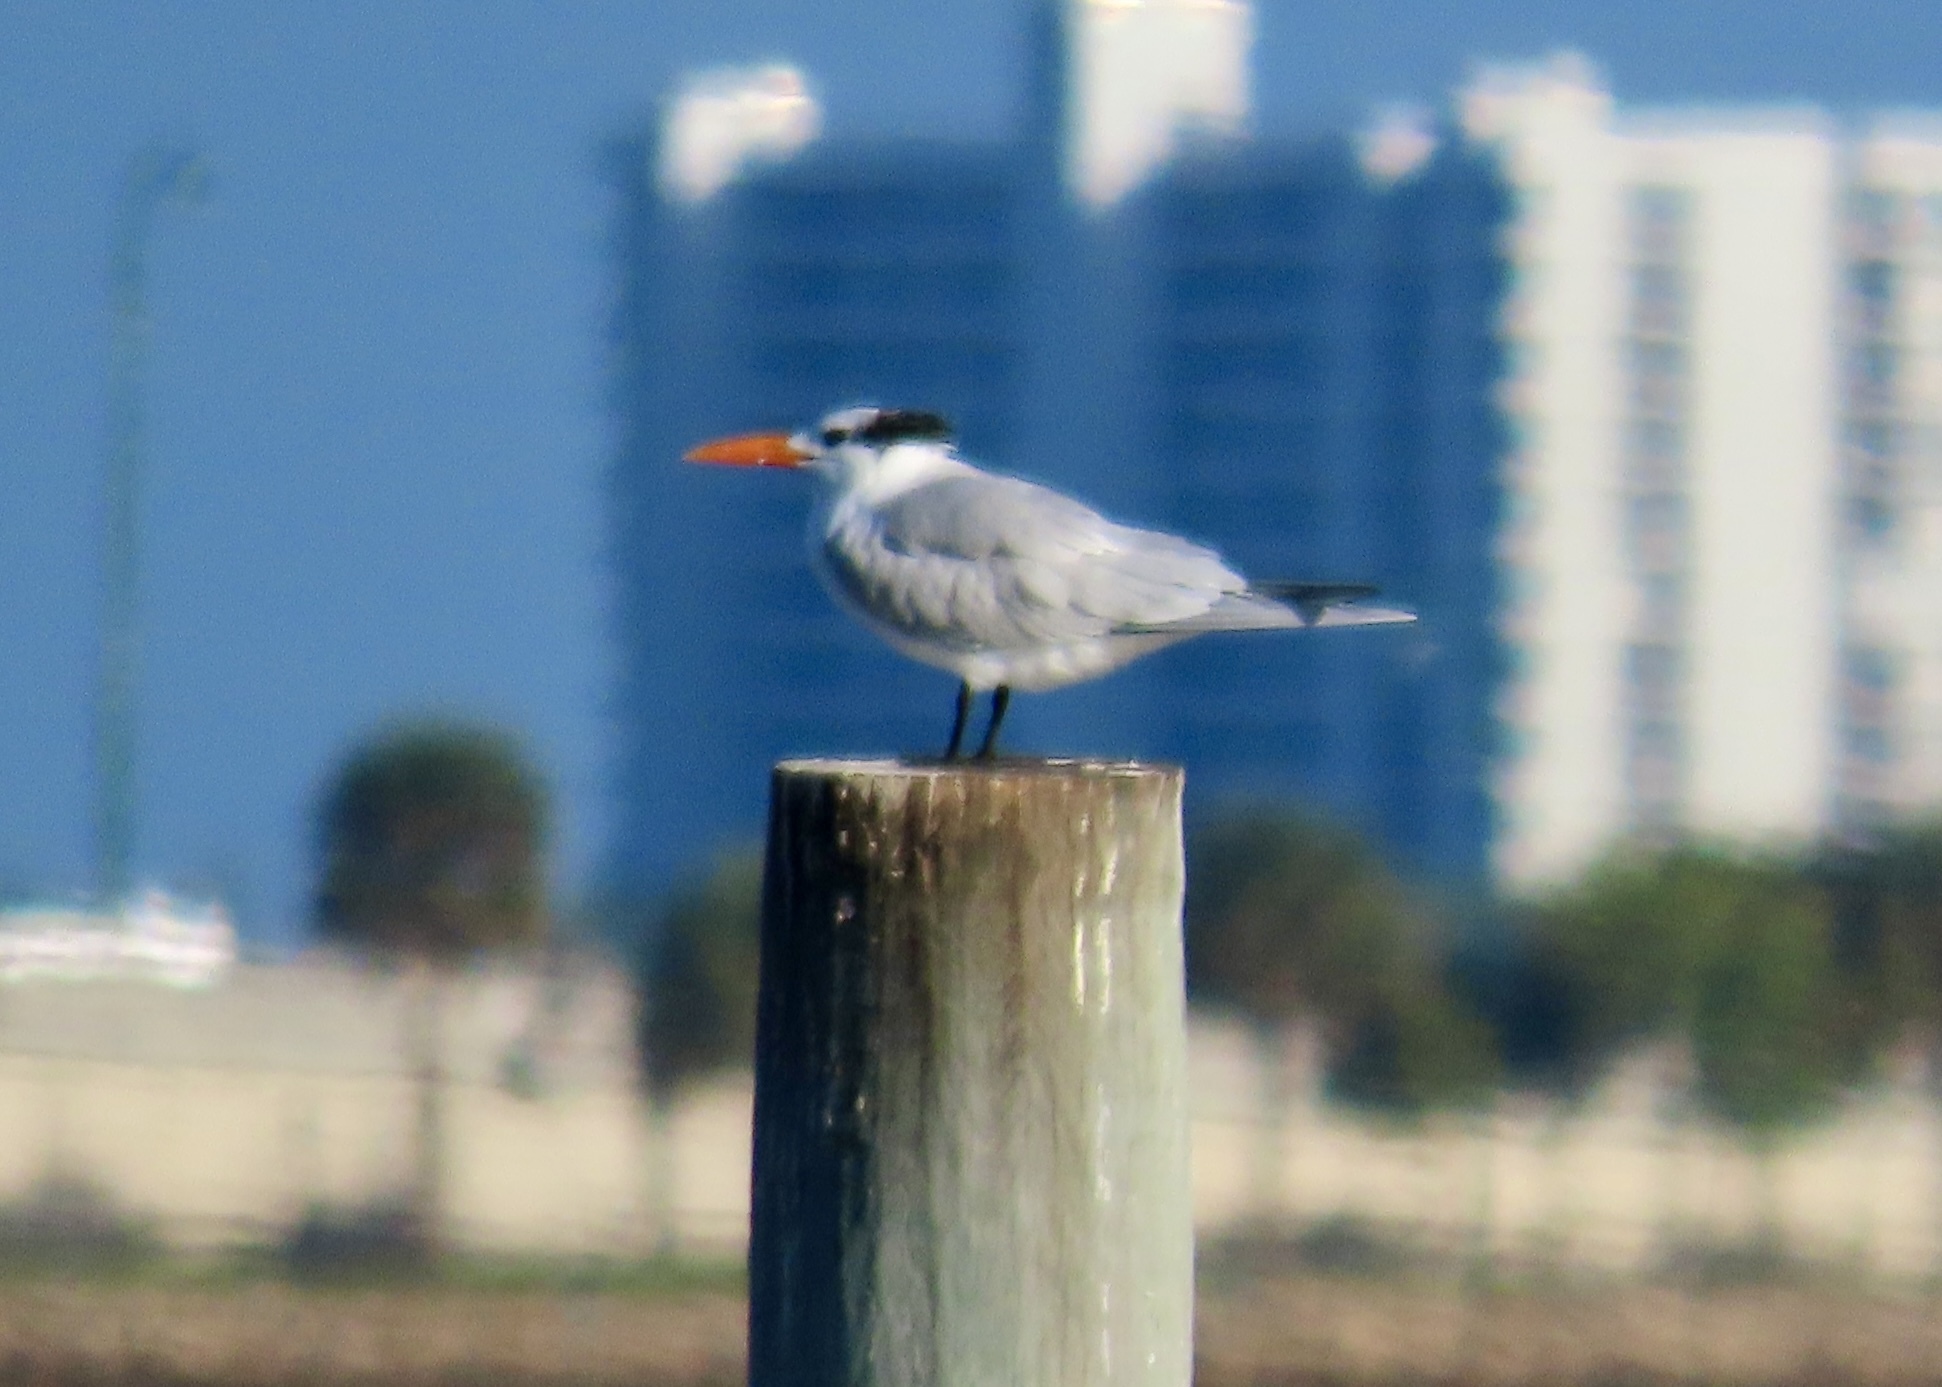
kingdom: Animalia
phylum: Chordata
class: Aves
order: Charadriiformes
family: Laridae
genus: Thalasseus
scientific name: Thalasseus maximus
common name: Royal tern
